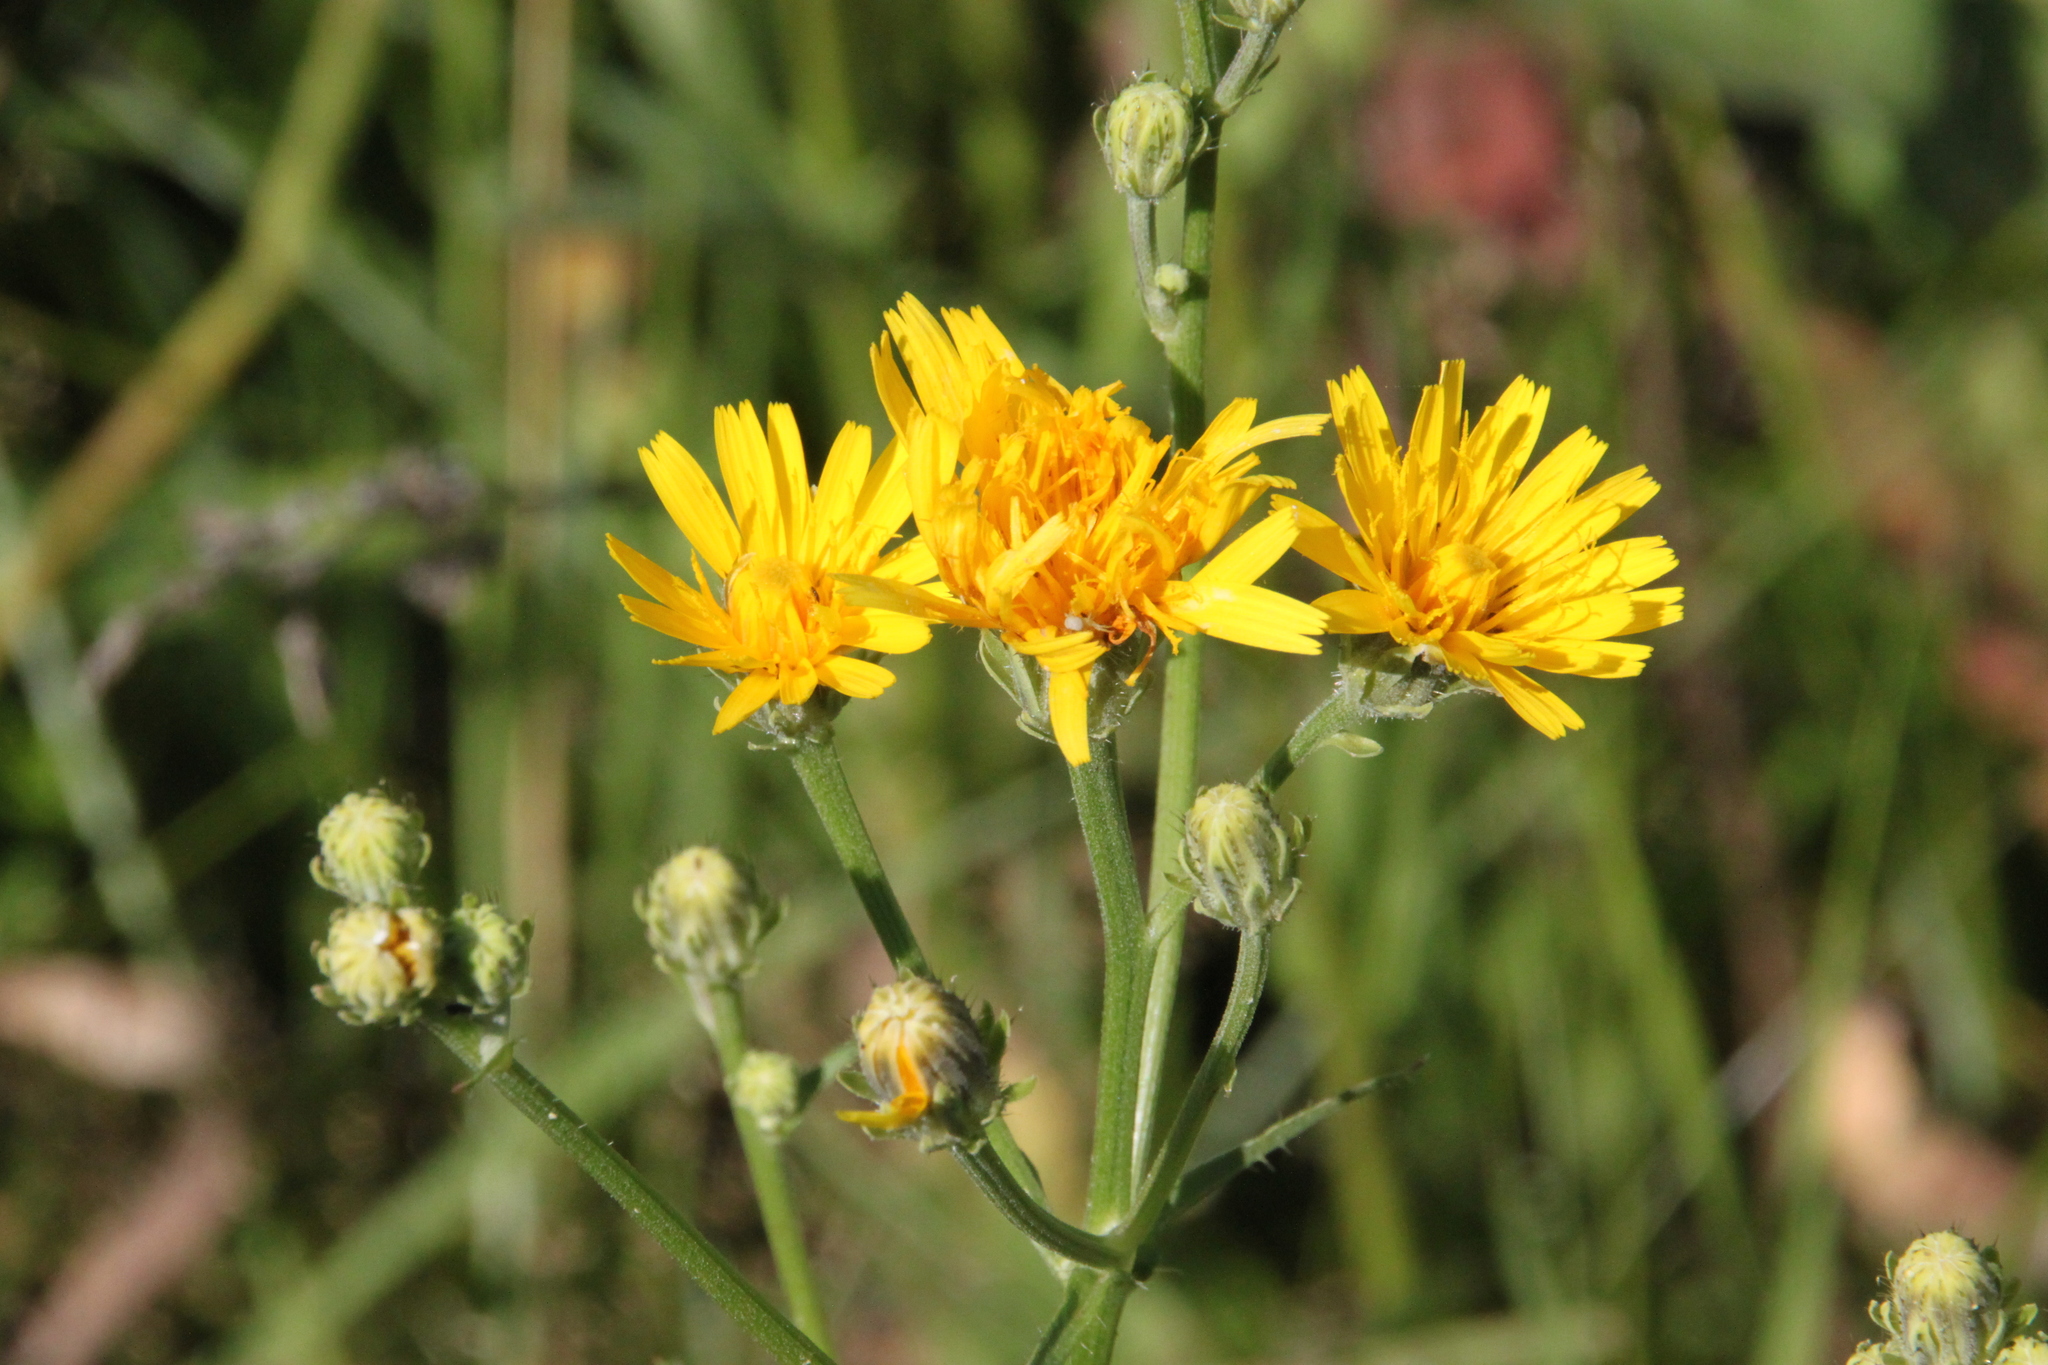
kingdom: Plantae
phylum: Tracheophyta
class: Magnoliopsida
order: Asterales
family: Asteraceae
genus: Picris
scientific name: Picris hieracioides
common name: Hawkweed oxtongue
